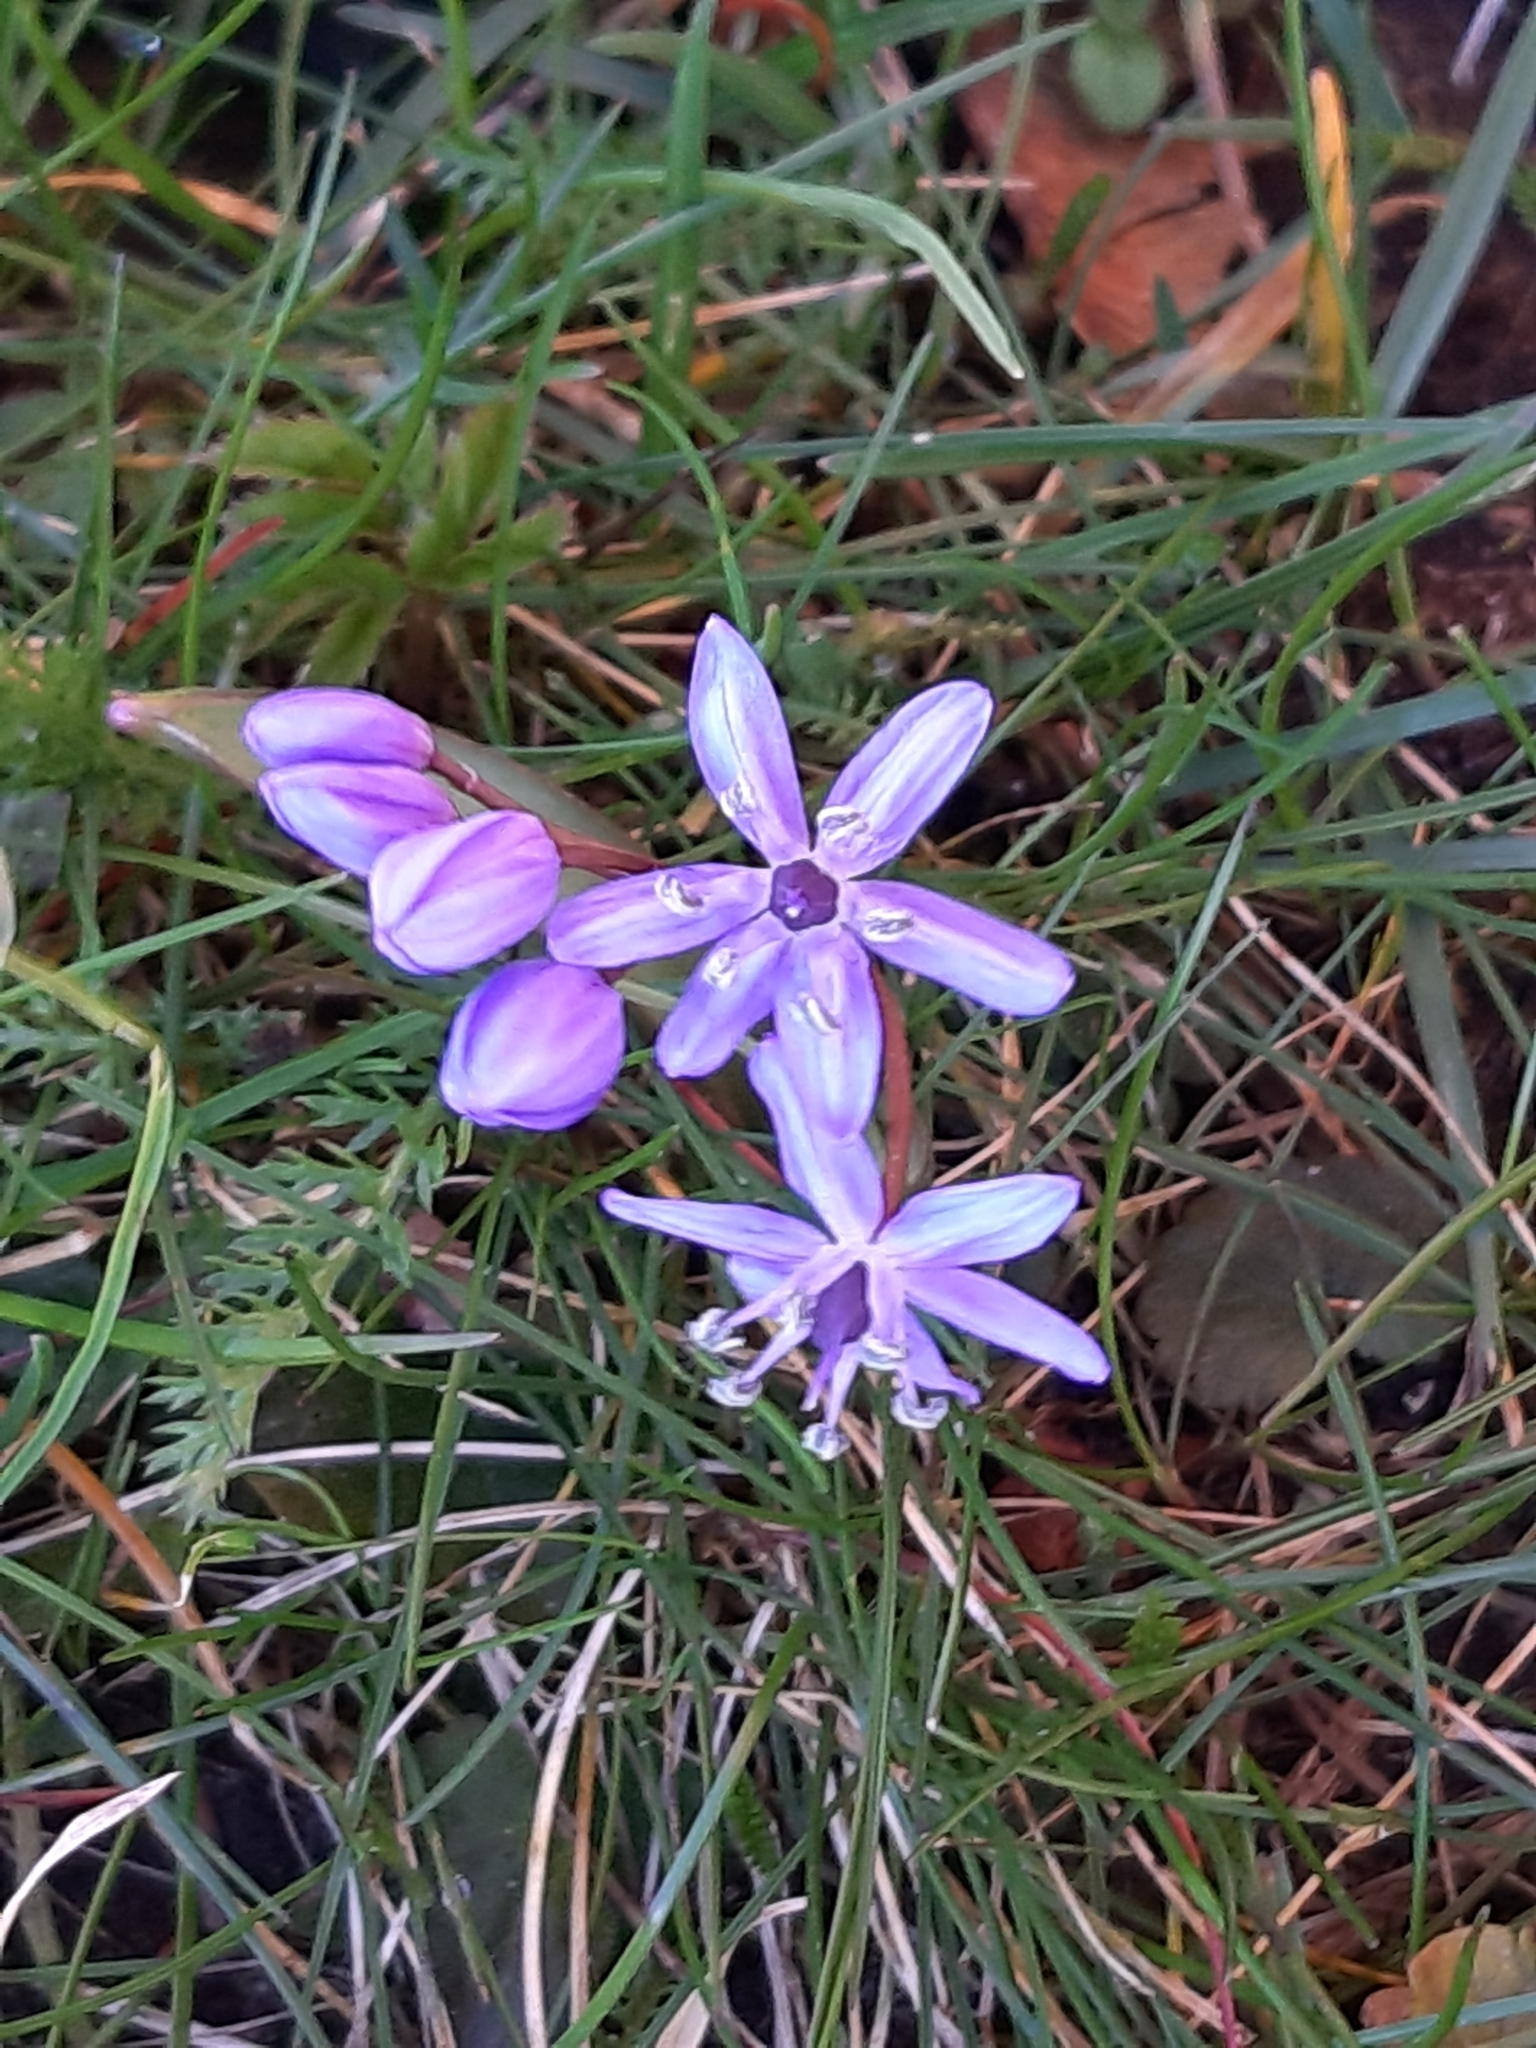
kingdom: Plantae
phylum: Tracheophyta
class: Liliopsida
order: Asparagales
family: Asparagaceae
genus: Scilla
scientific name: Scilla bifolia
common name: Alpine squill
